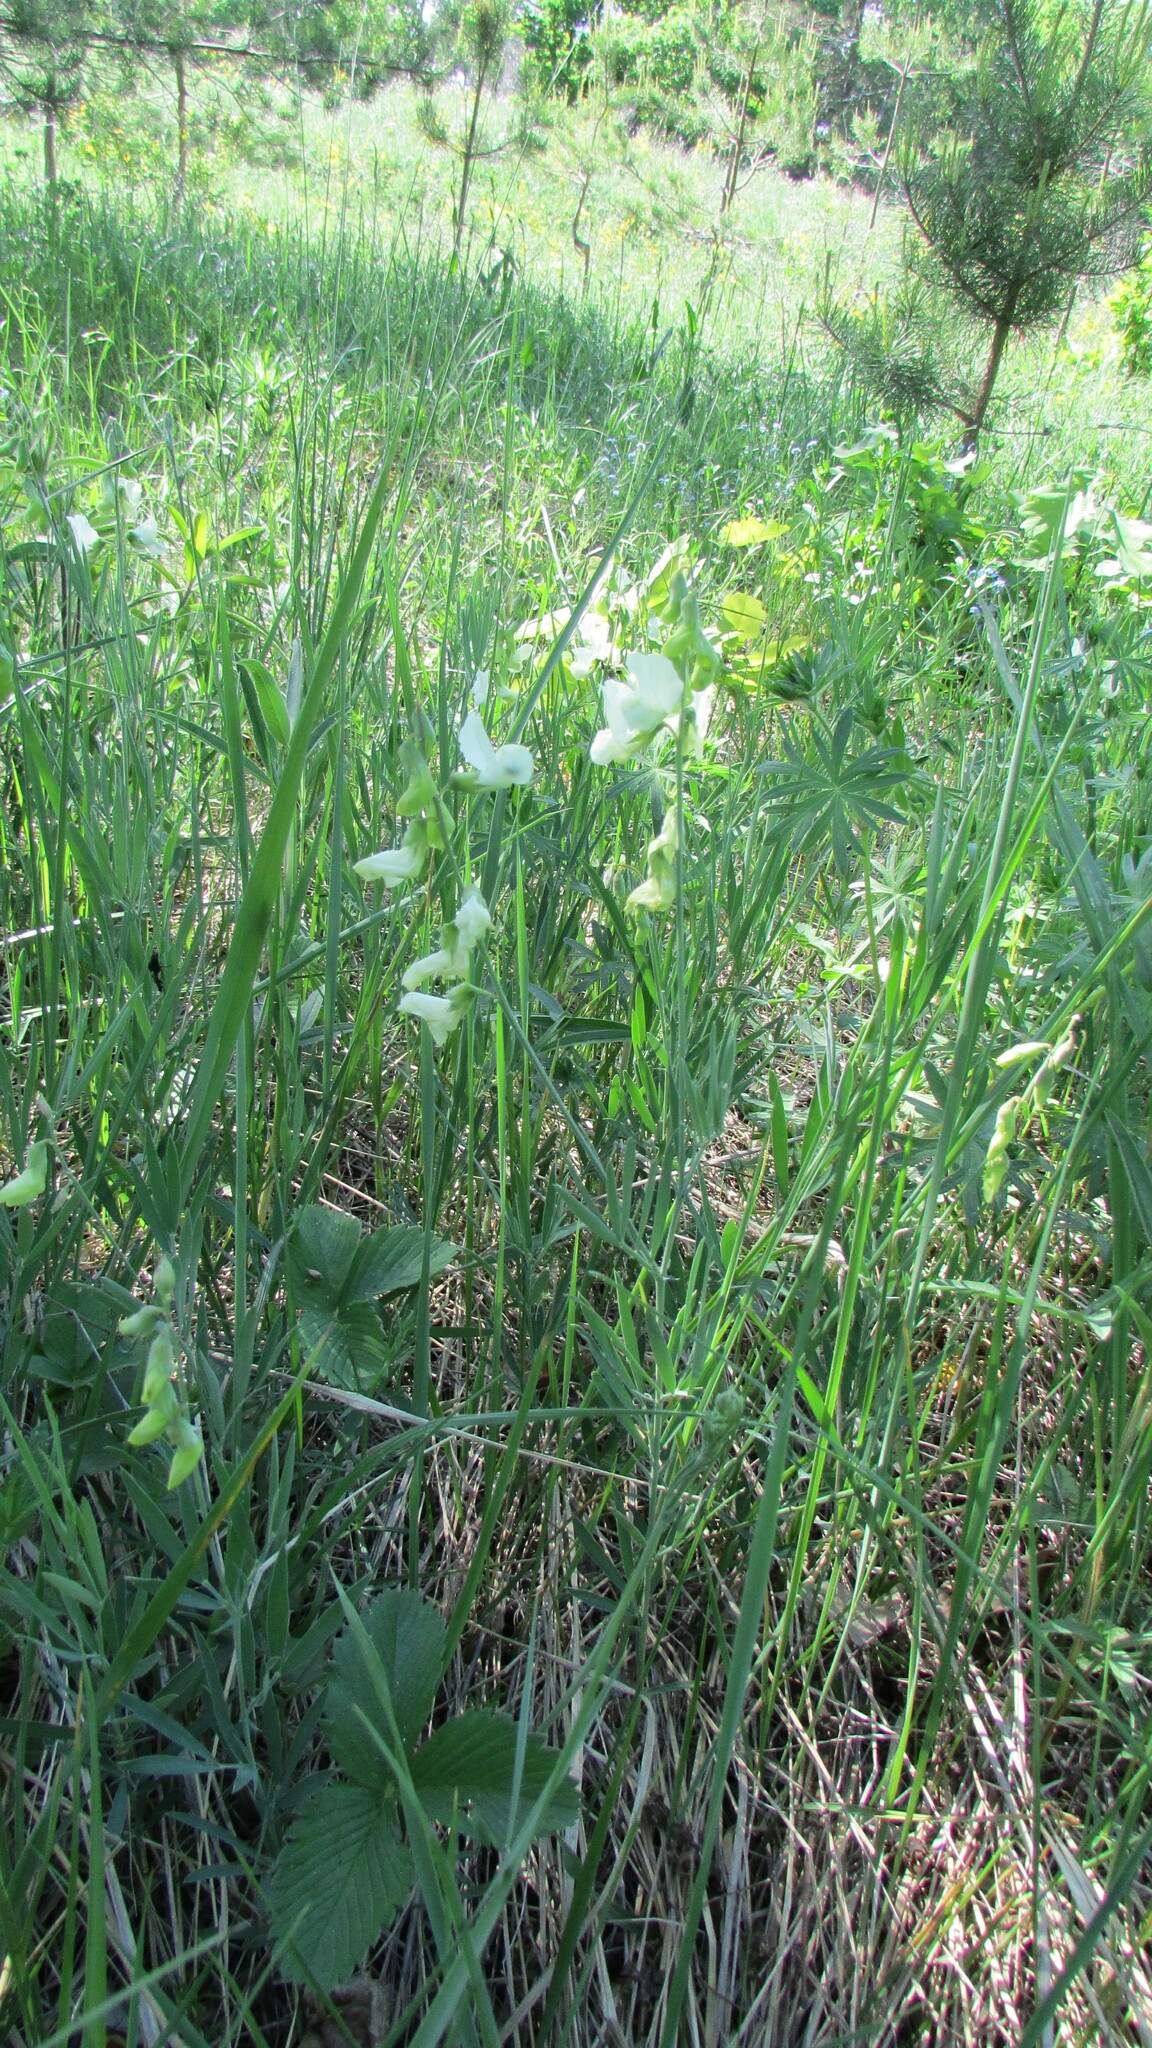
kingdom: Plantae
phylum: Tracheophyta
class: Magnoliopsida
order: Fabales
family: Fabaceae
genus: Lathyrus
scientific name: Lathyrus pallescens
